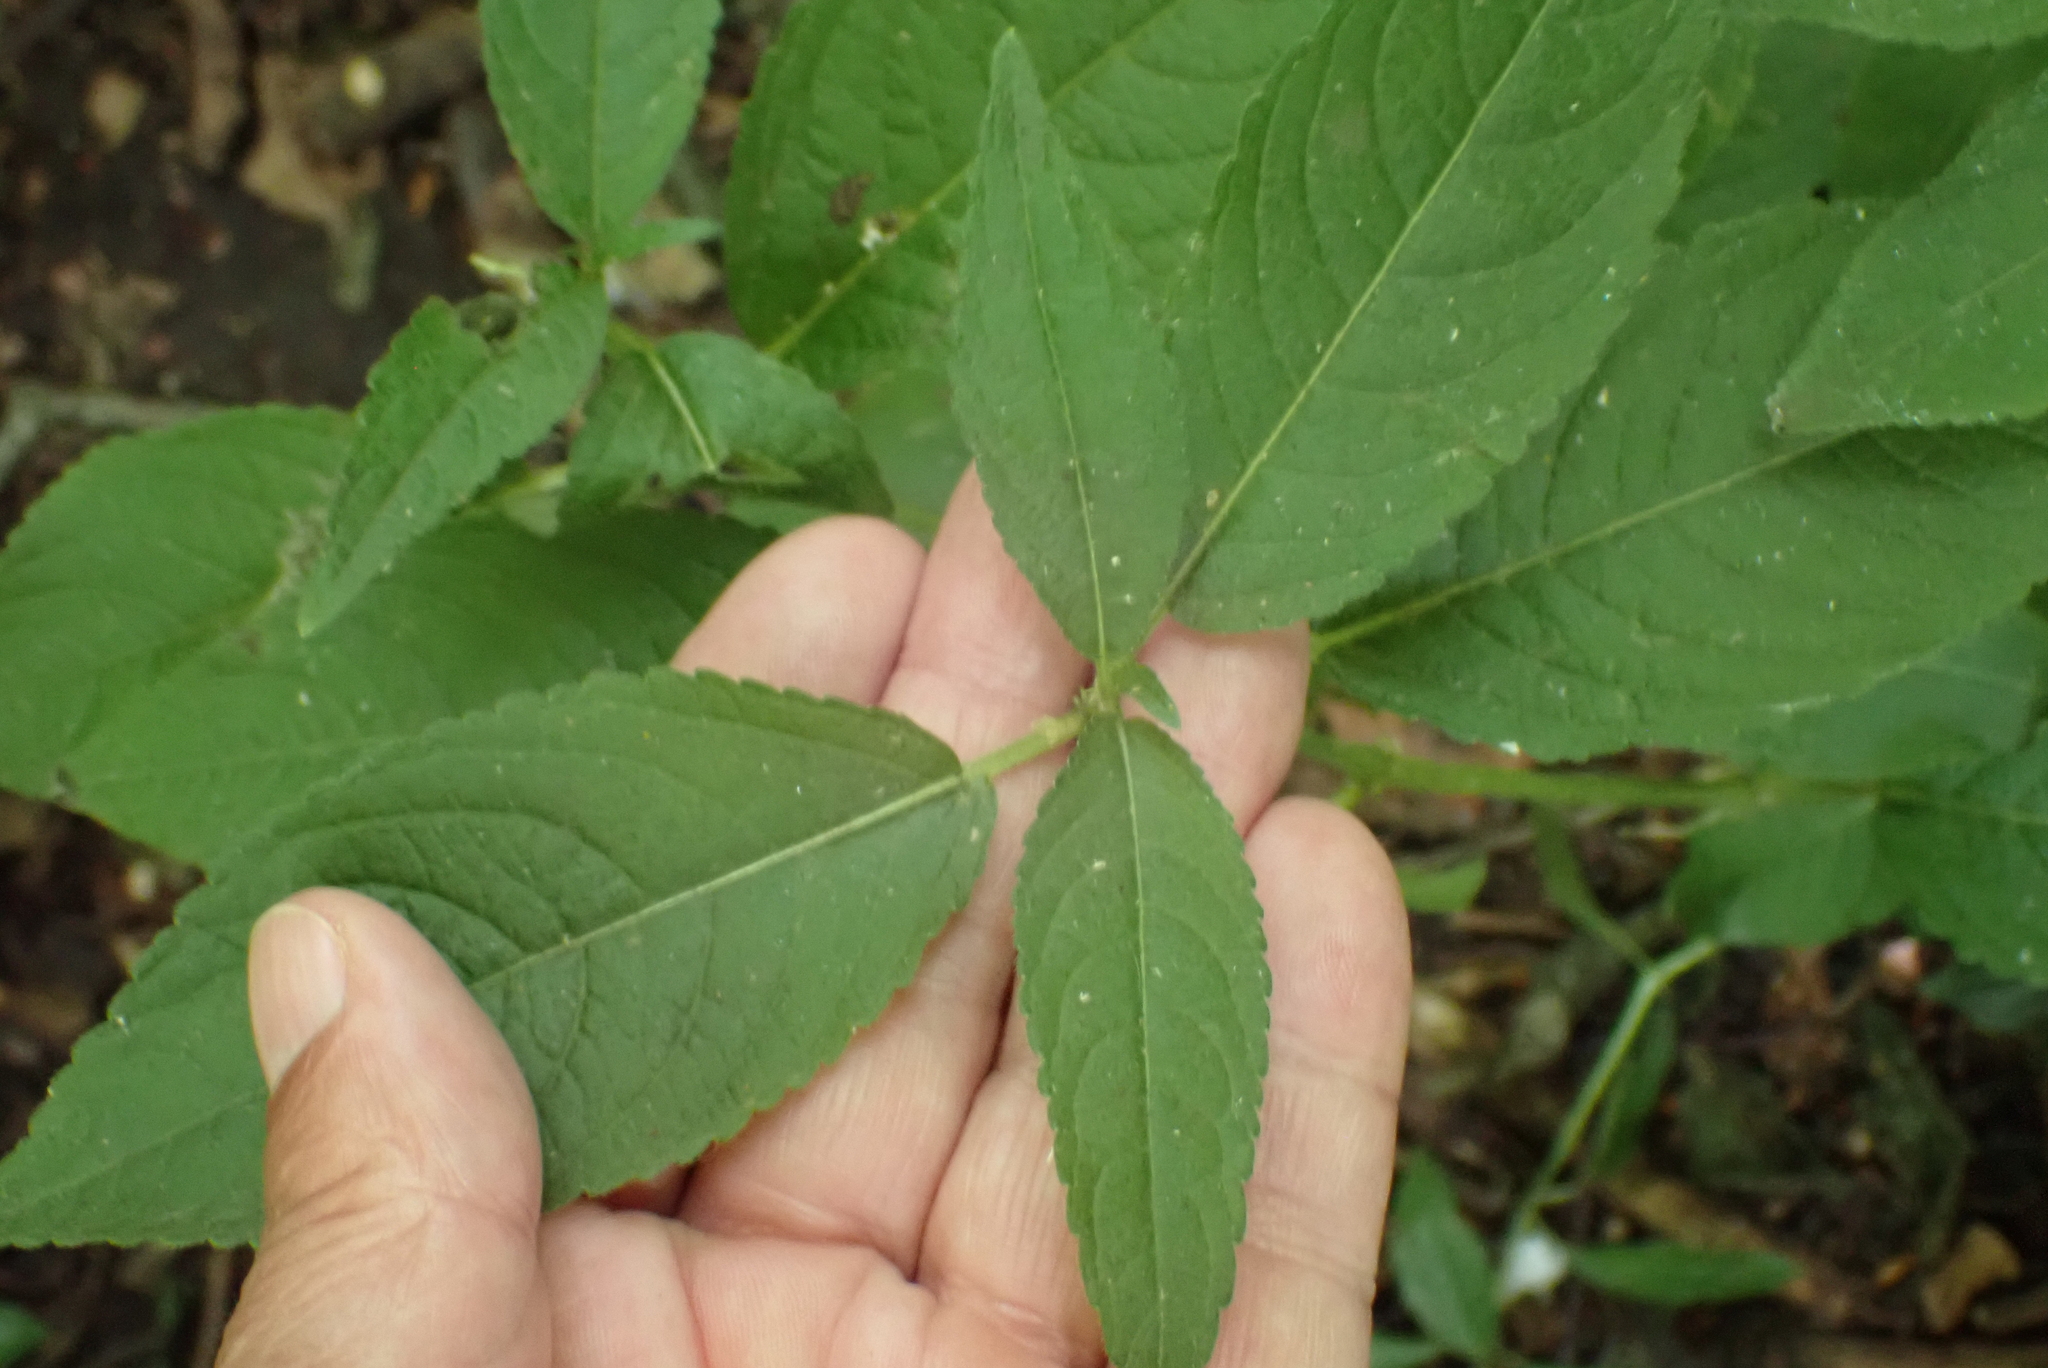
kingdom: Plantae
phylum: Tracheophyta
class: Magnoliopsida
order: Malpighiales
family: Euphorbiaceae
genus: Mercurialis
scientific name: Mercurialis perennis
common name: Dog mercury
